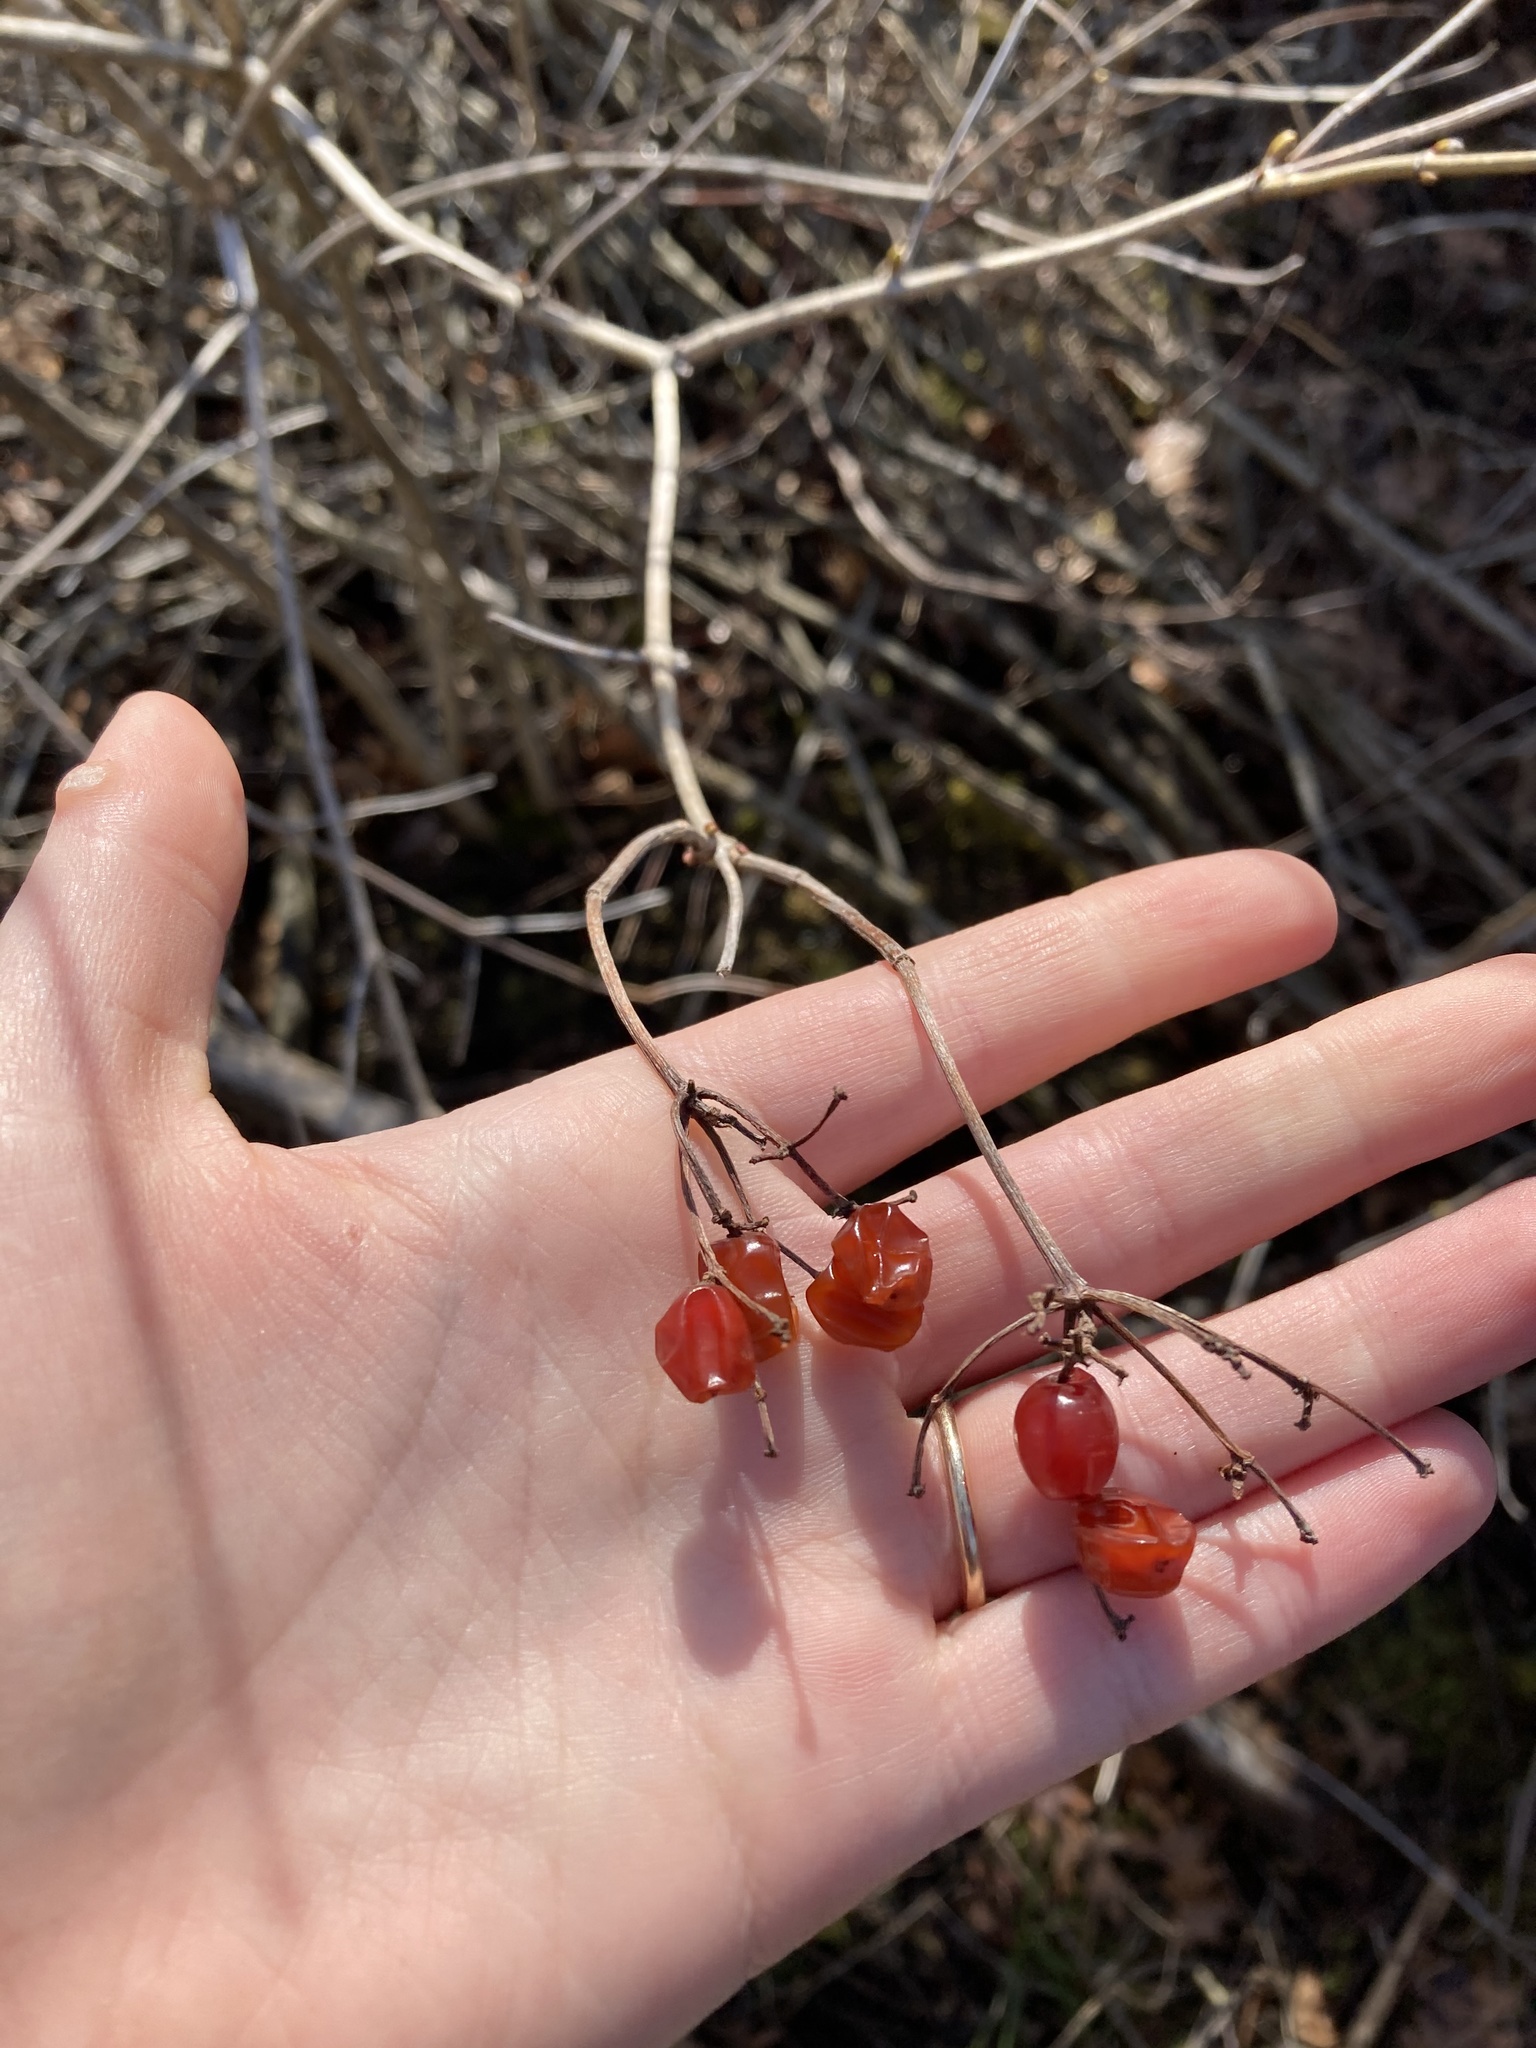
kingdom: Plantae
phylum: Tracheophyta
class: Magnoliopsida
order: Dipsacales
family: Viburnaceae
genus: Viburnum
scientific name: Viburnum opulus
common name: Guelder-rose
